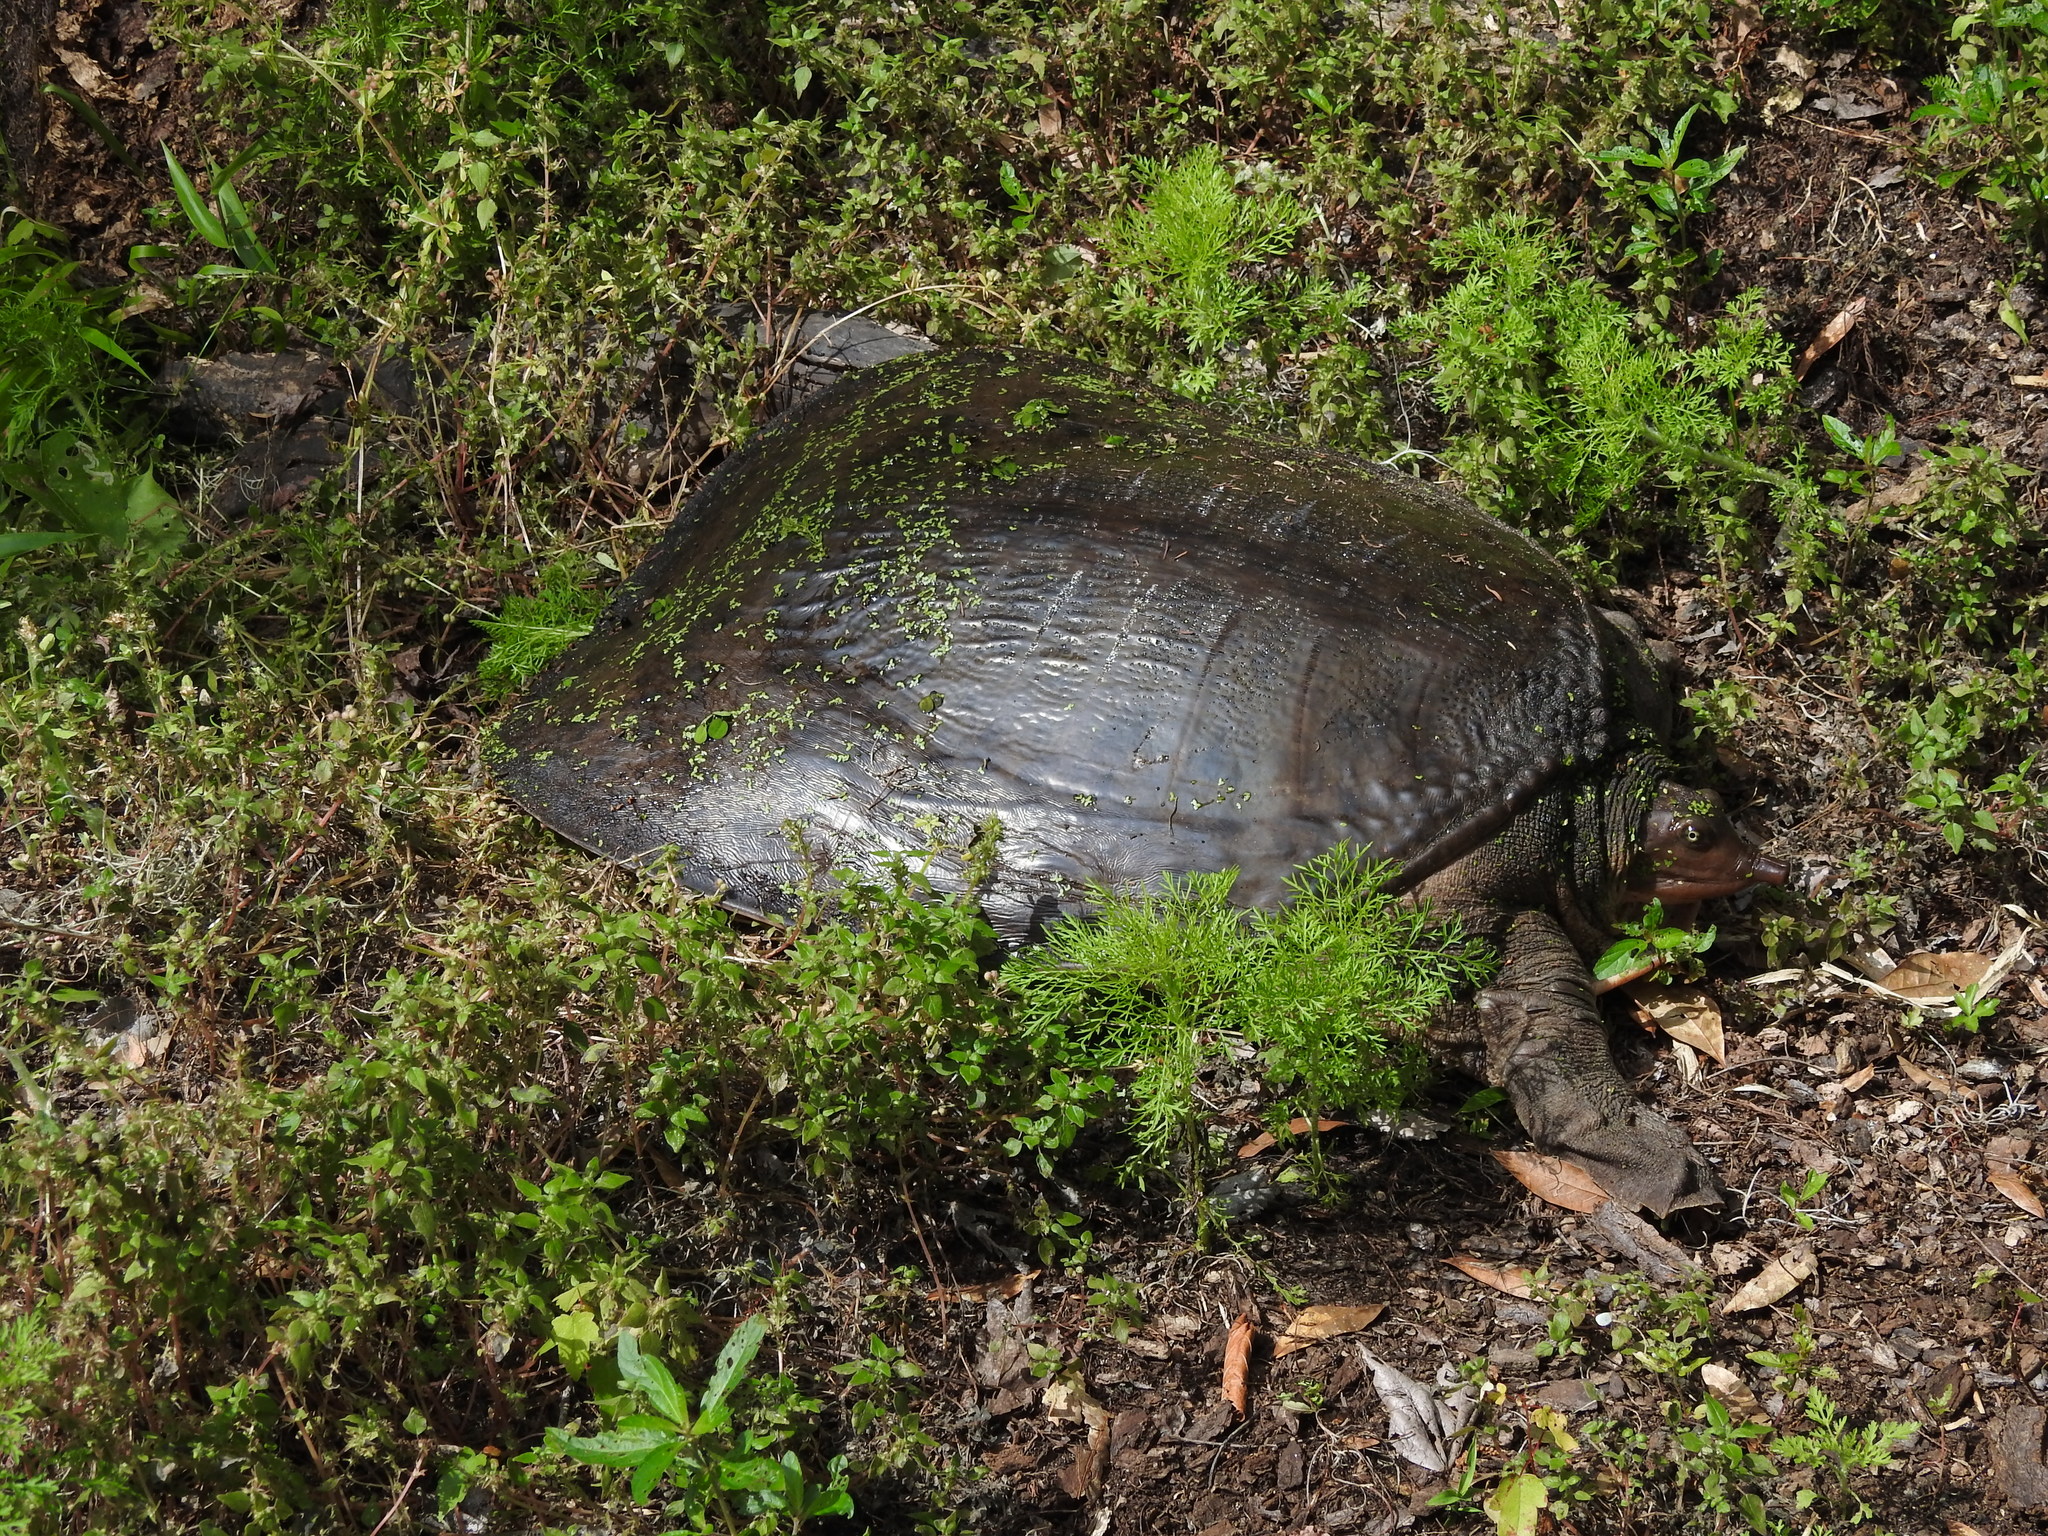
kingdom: Animalia
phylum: Chordata
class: Testudines
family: Trionychidae
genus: Apalone
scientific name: Apalone ferox
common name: Florida softshell turtle
